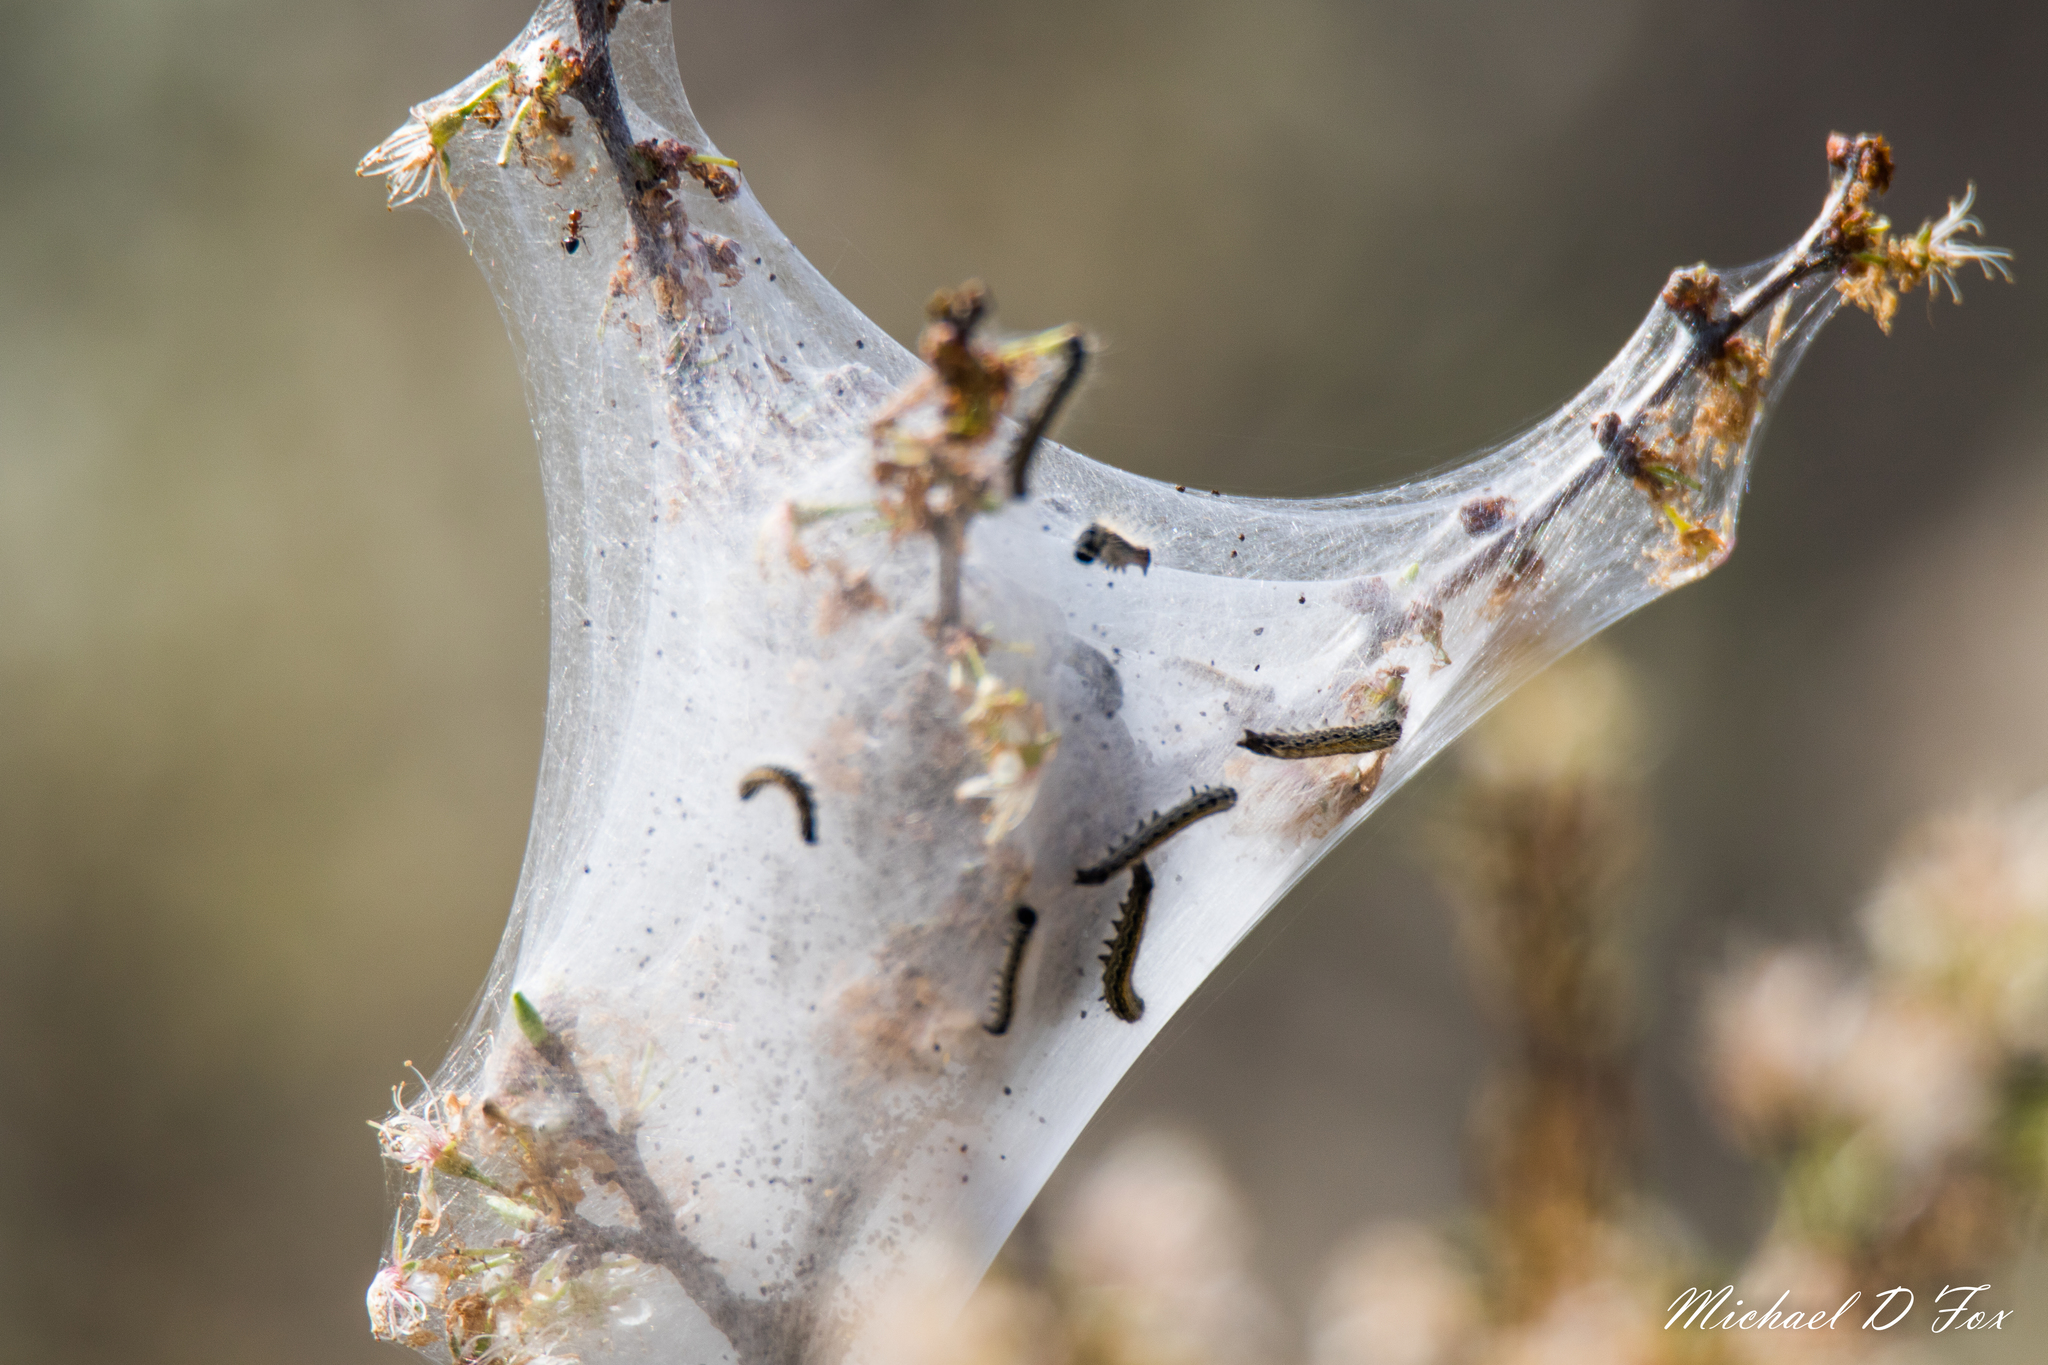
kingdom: Animalia
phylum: Arthropoda
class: Insecta
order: Lepidoptera
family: Lasiocampidae
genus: Malacosoma
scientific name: Malacosoma americana
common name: Eastern tent caterpillar moth
